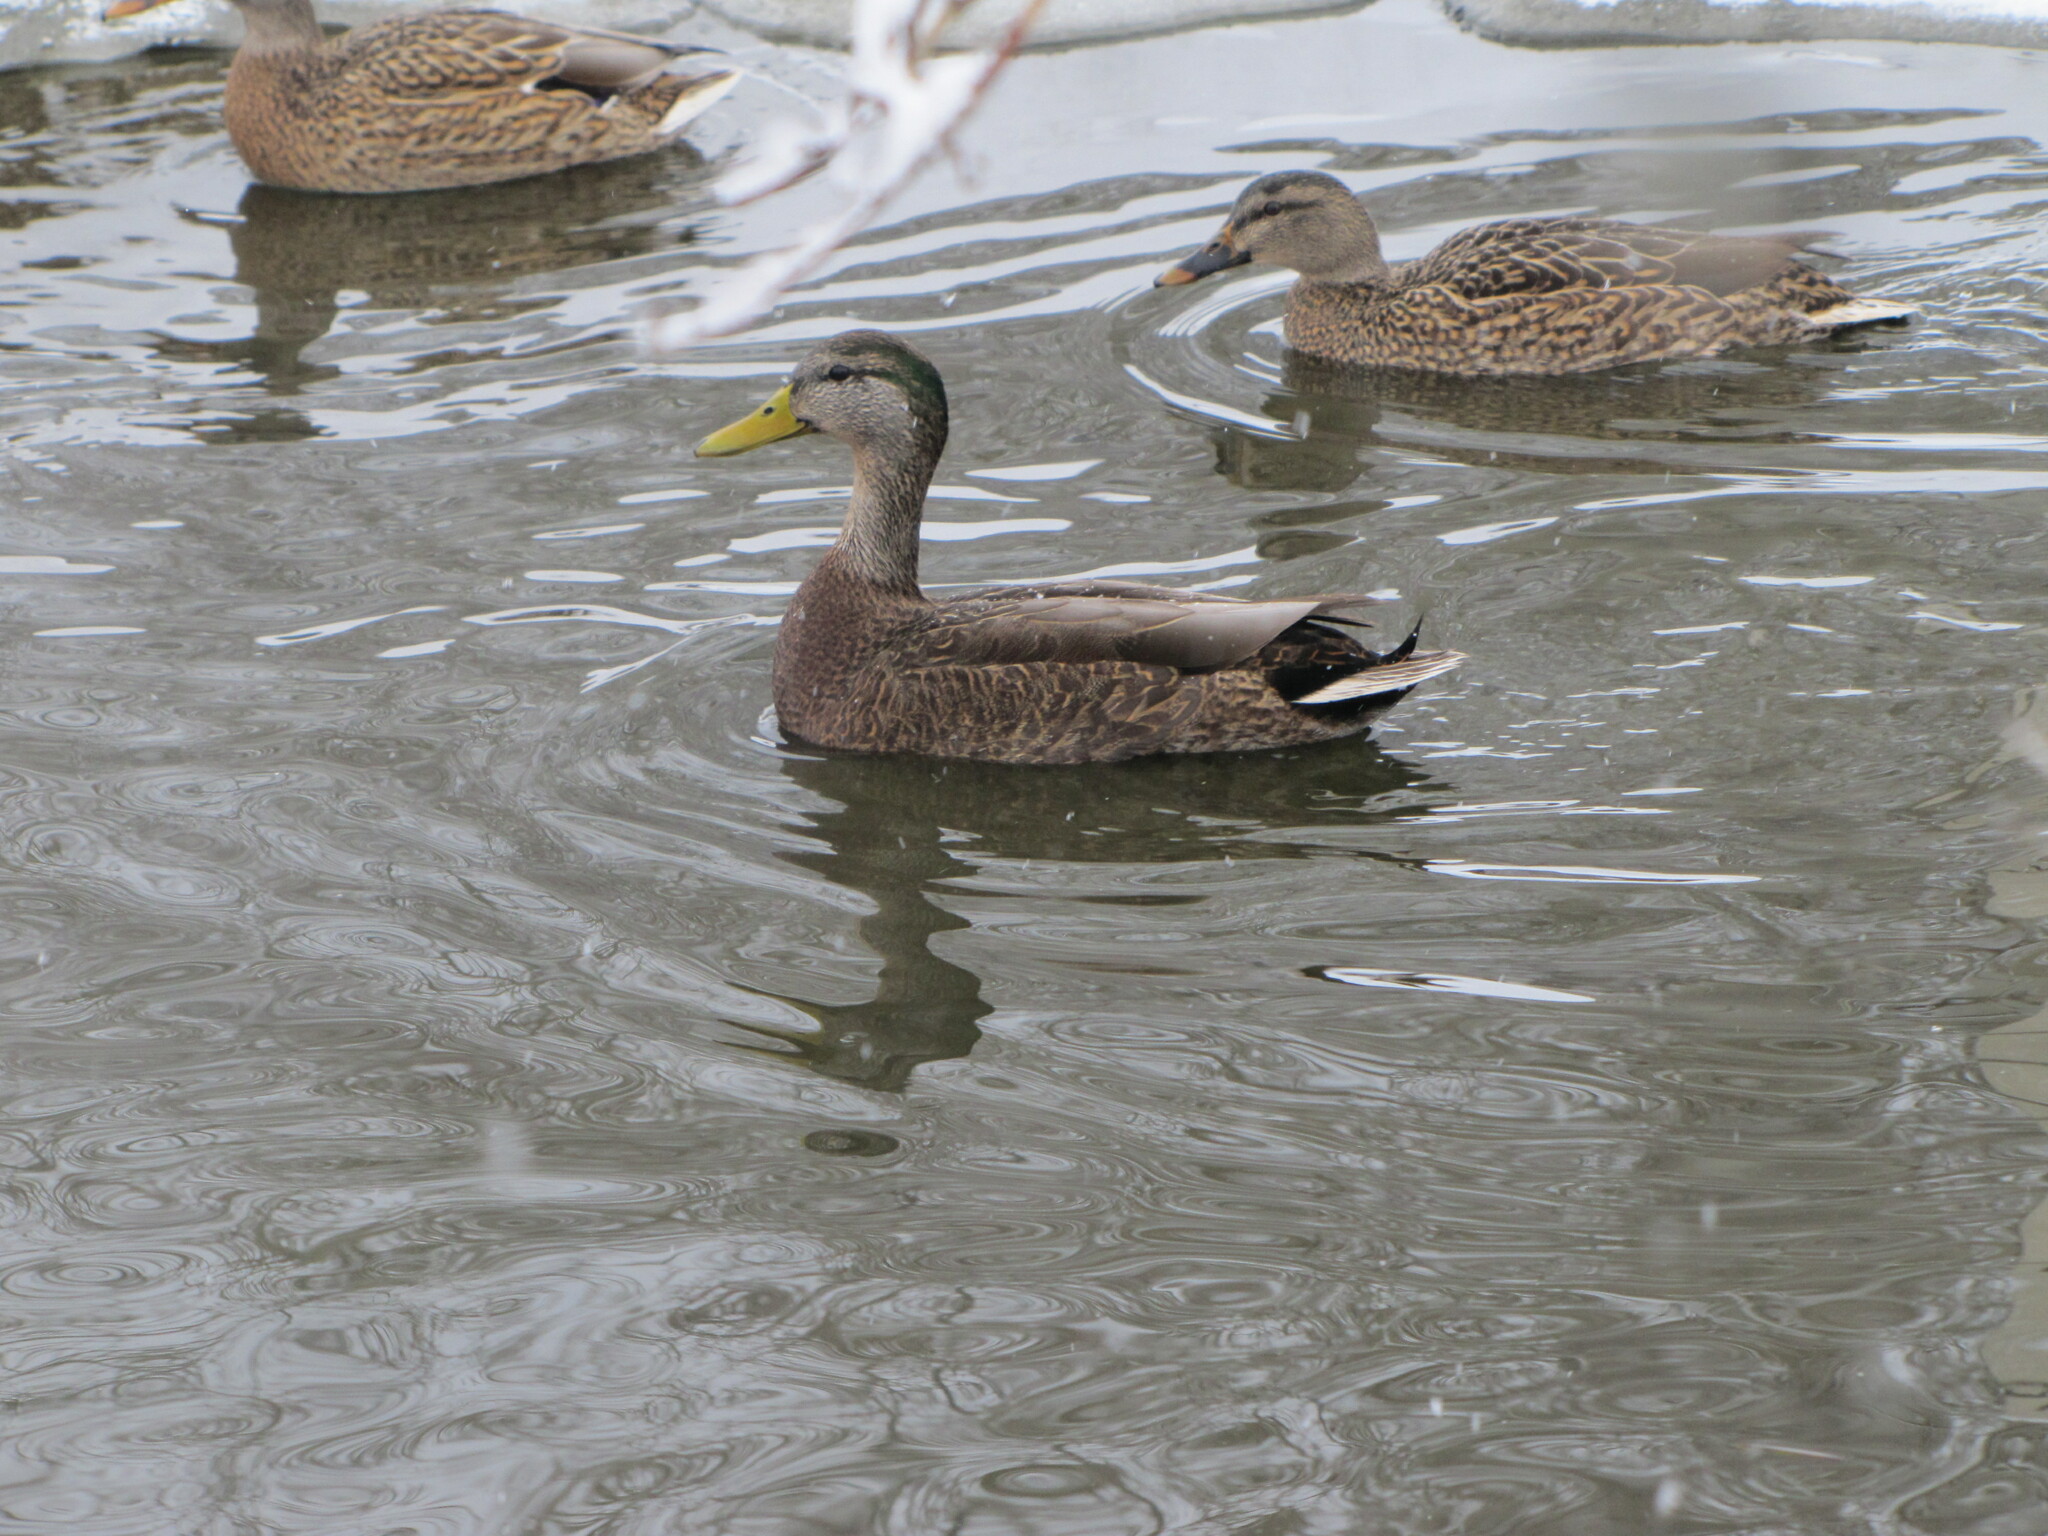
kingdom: Animalia
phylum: Chordata
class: Aves
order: Anseriformes
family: Anatidae
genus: Anas
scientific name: Anas
